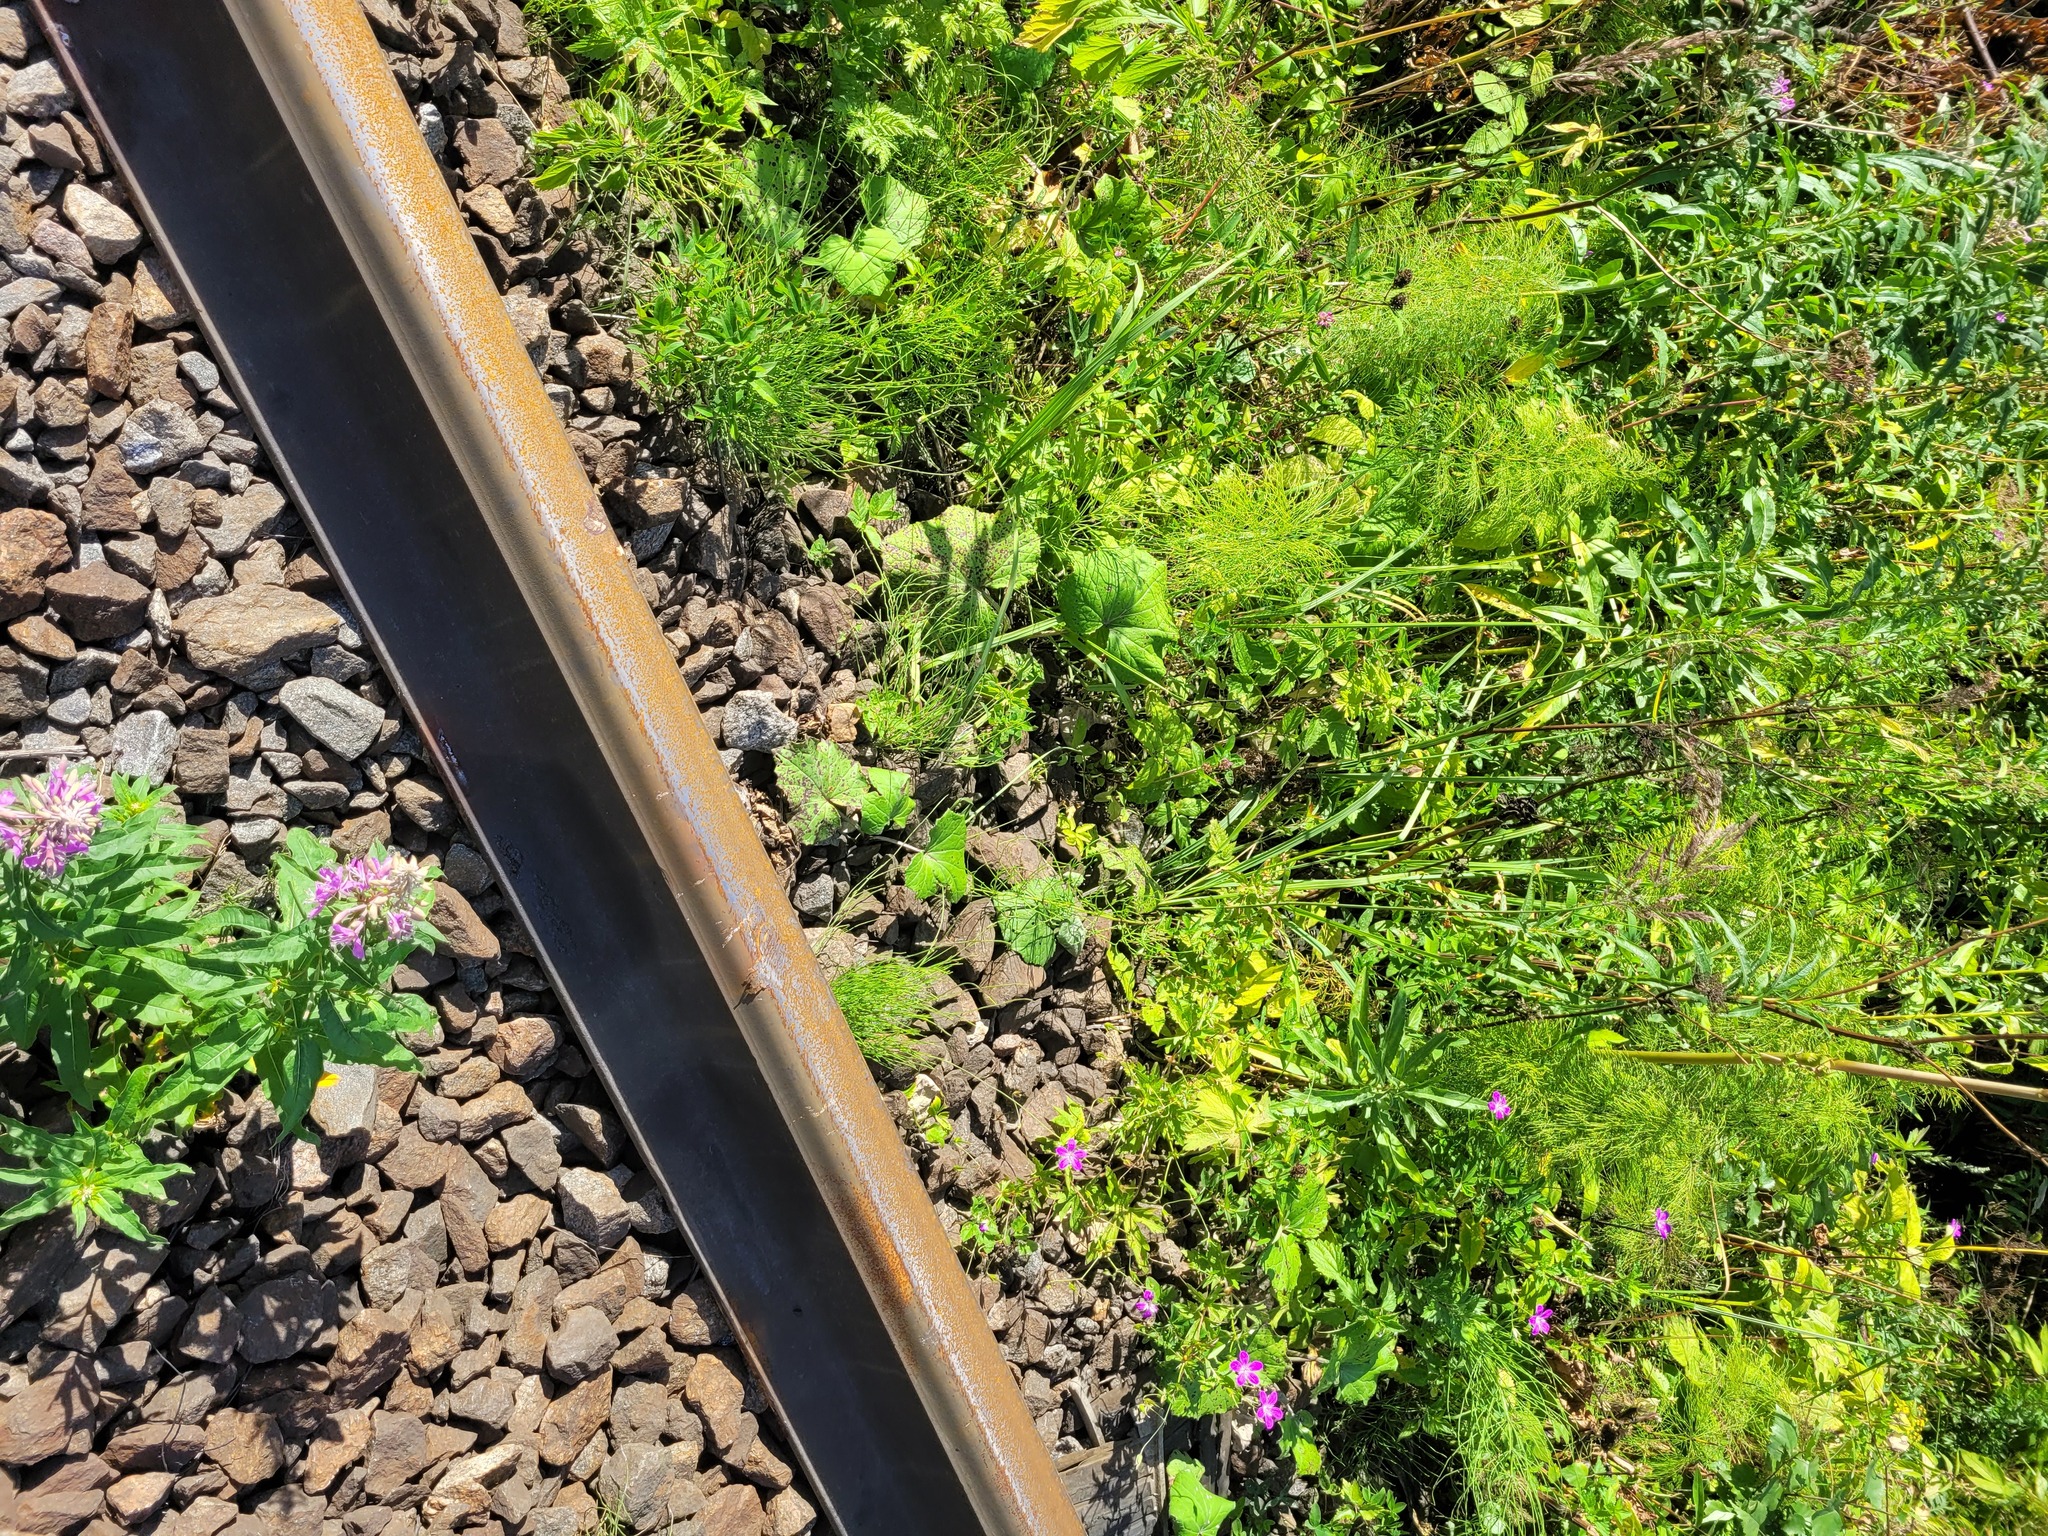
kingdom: Plantae
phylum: Tracheophyta
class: Magnoliopsida
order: Asterales
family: Asteraceae
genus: Tussilago
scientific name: Tussilago farfara
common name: Coltsfoot
